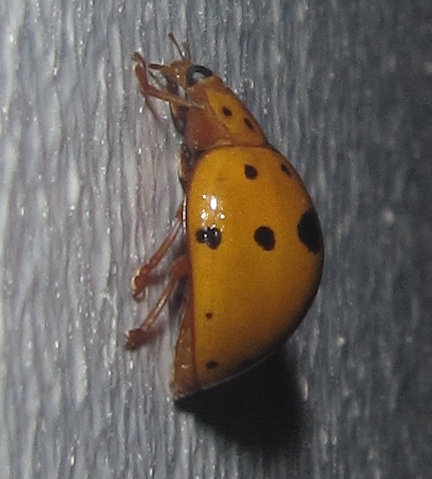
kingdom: Animalia
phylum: Arthropoda
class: Insecta
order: Coleoptera
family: Coccinellidae
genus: Harmonia
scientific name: Harmonia
